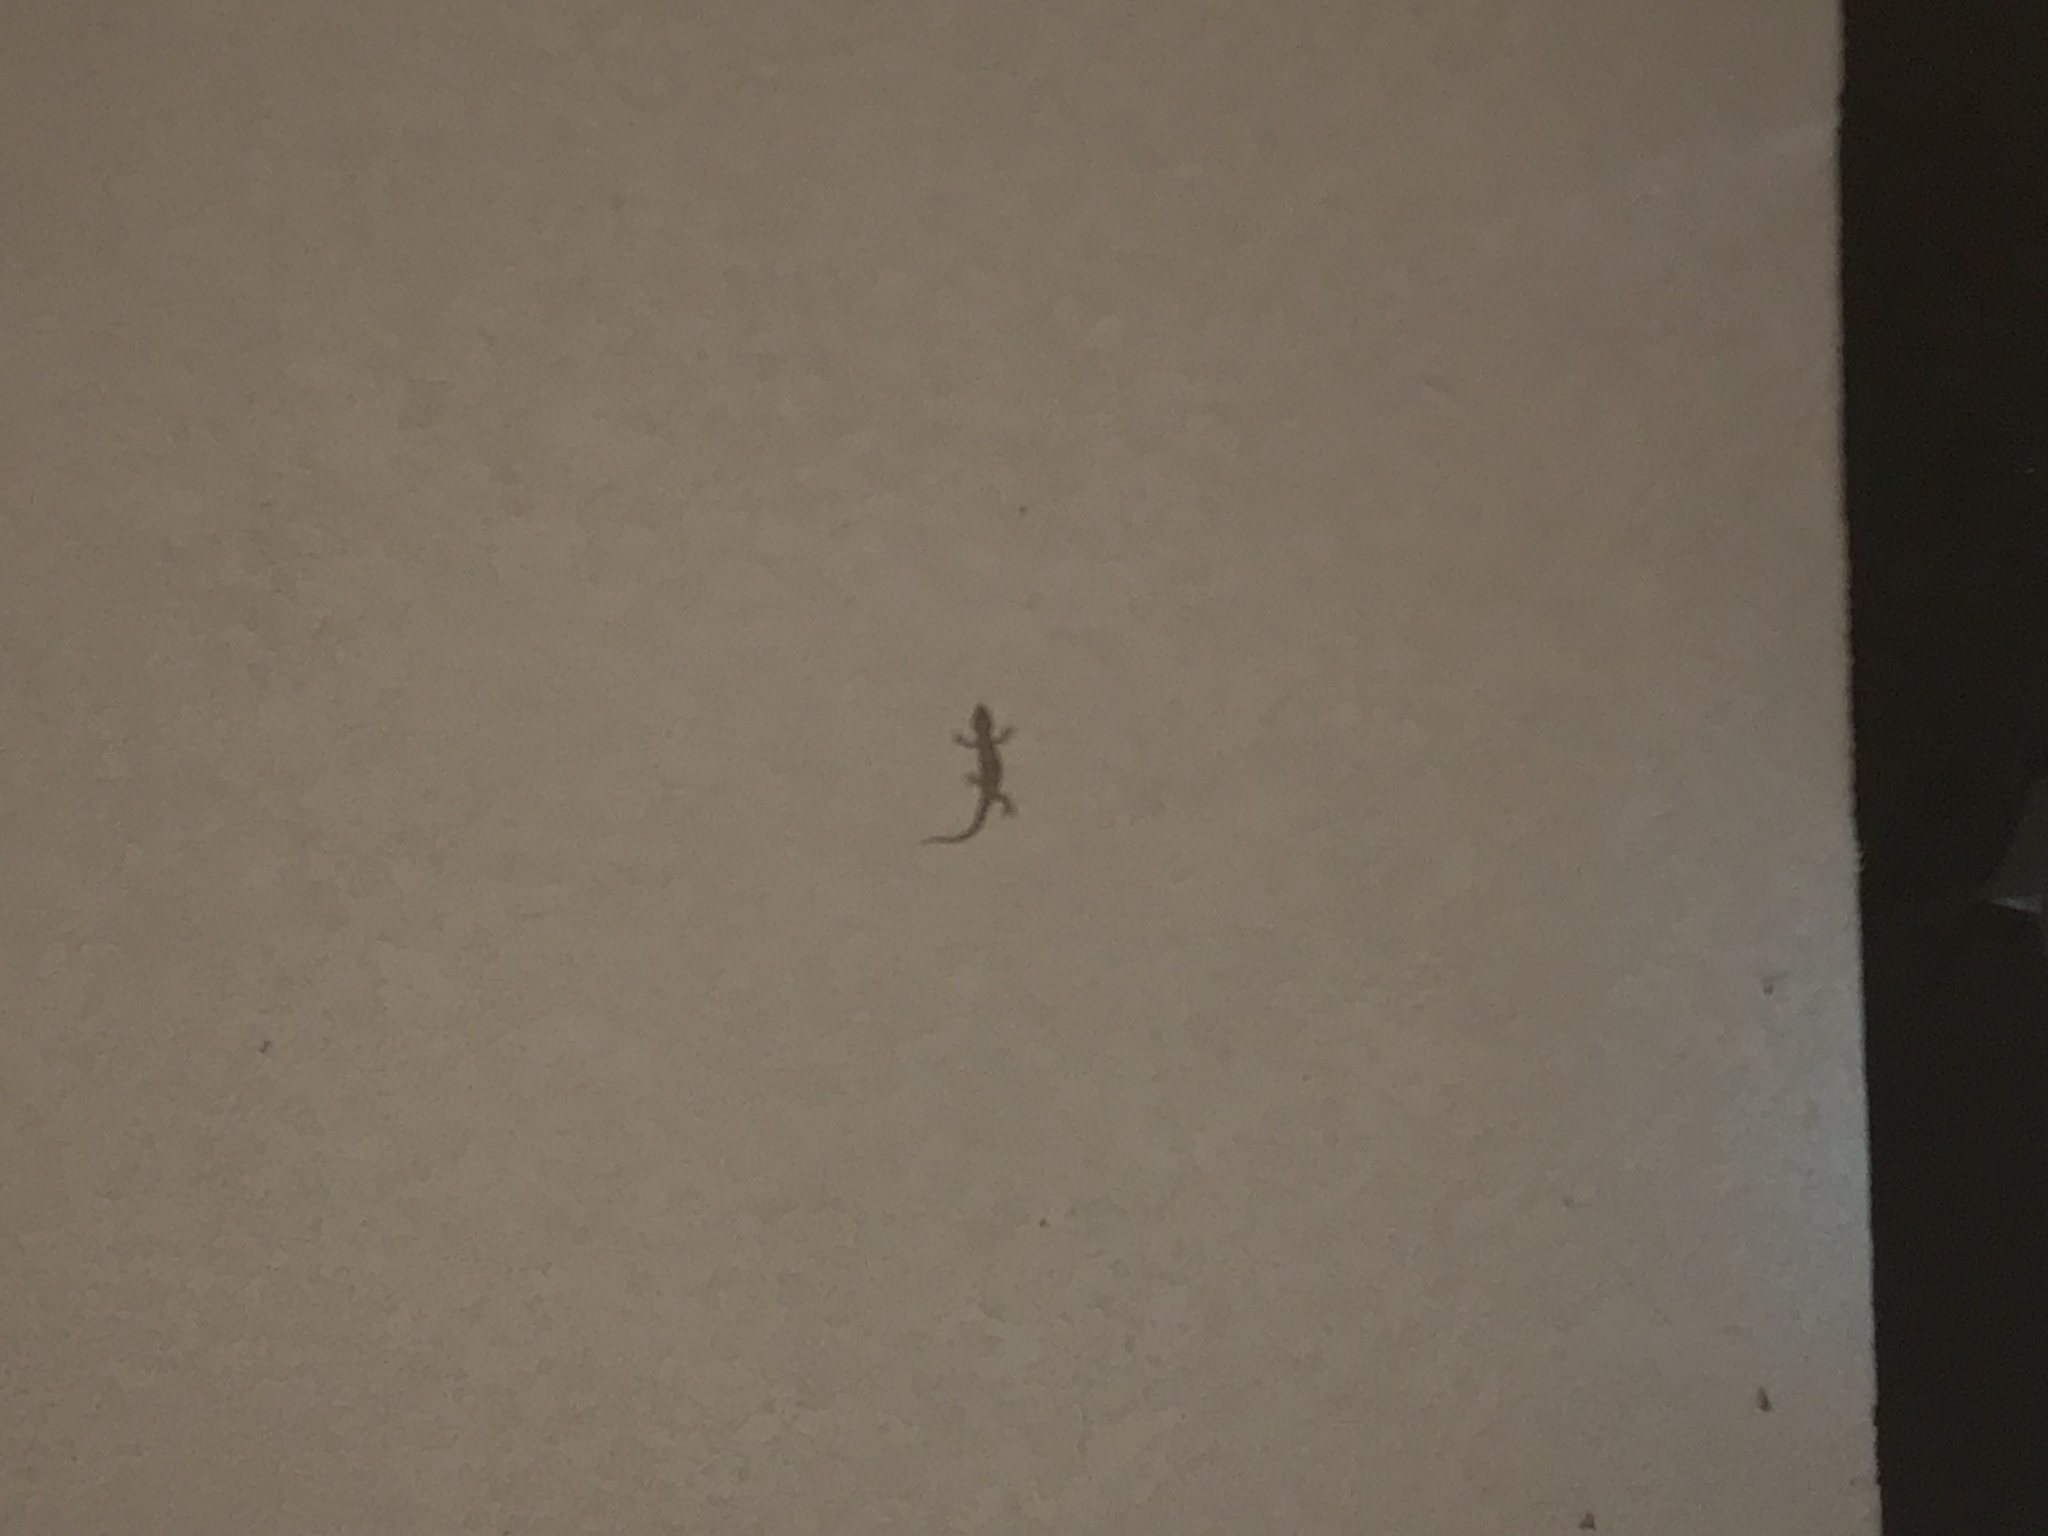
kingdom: Animalia
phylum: Chordata
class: Squamata
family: Gekkonidae
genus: Hemidactylus
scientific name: Hemidactylus turcicus
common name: Turkish gecko
